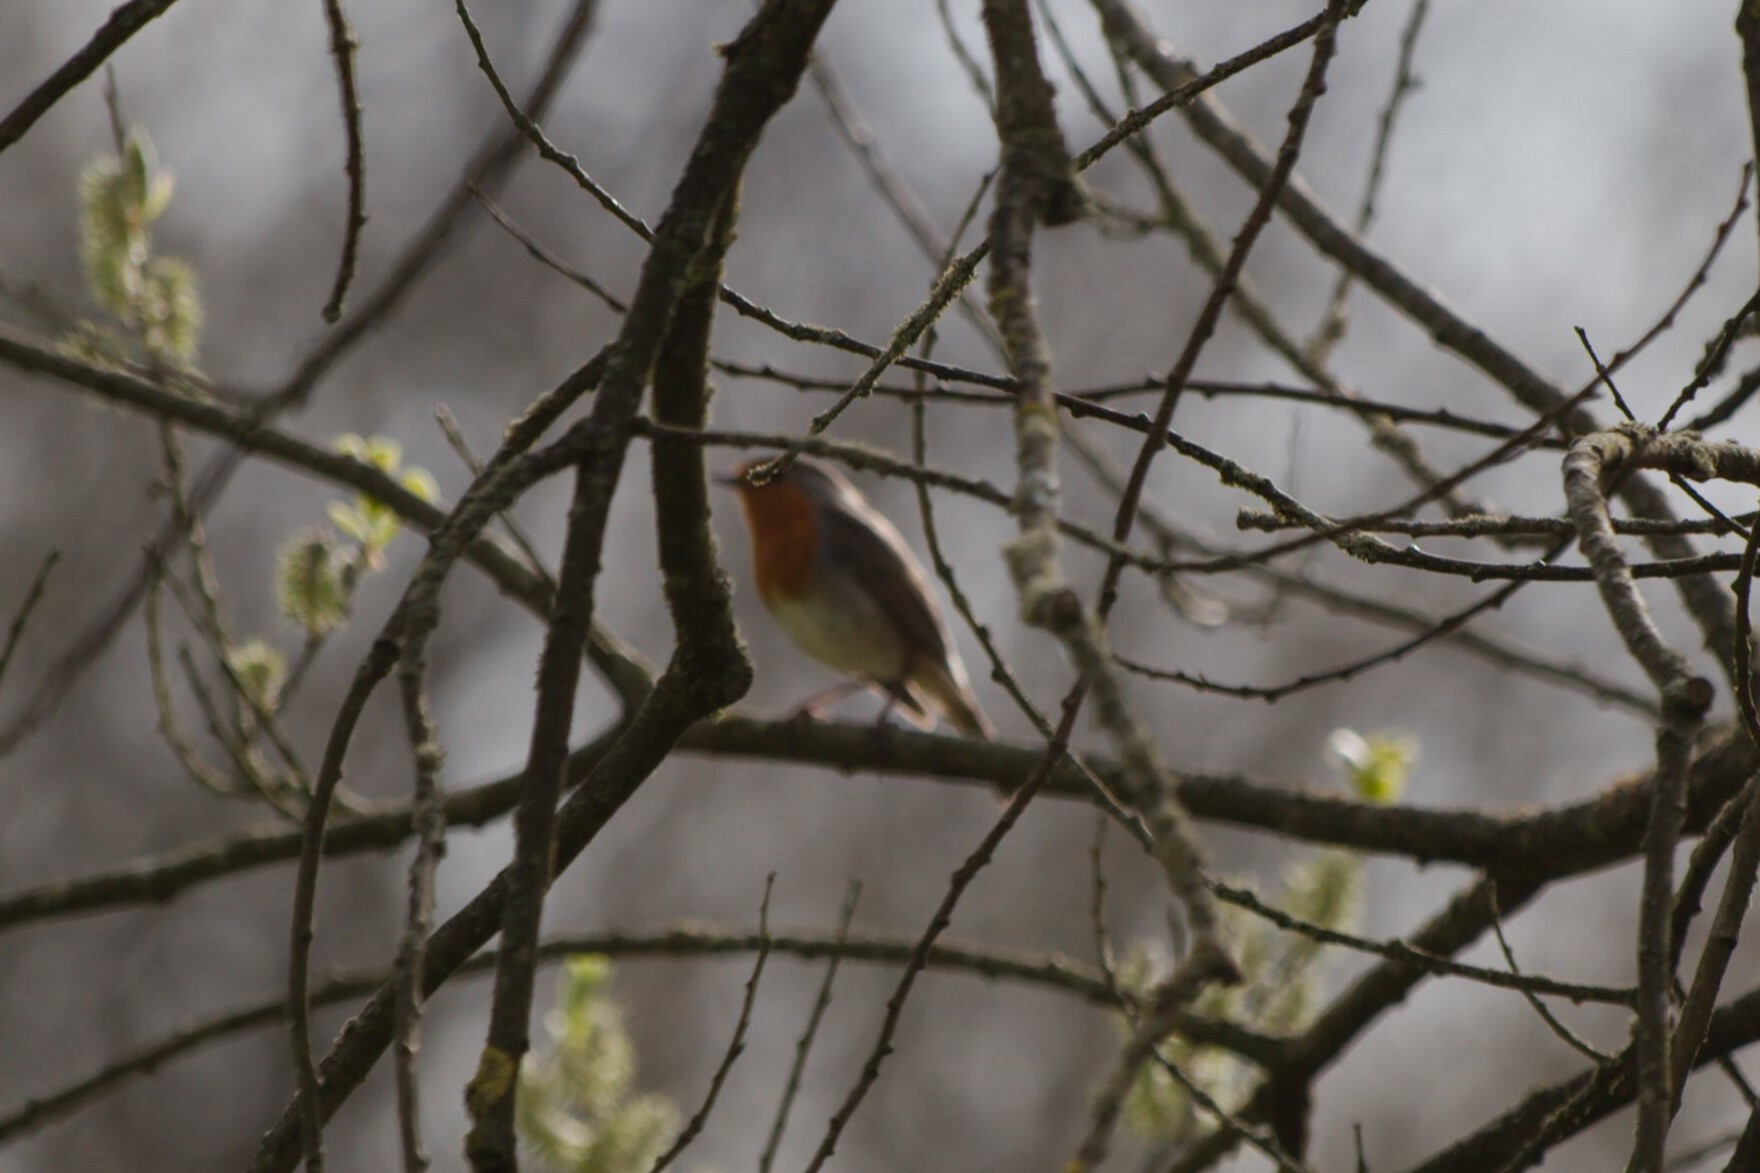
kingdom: Animalia
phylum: Chordata
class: Aves
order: Passeriformes
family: Muscicapidae
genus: Erithacus
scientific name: Erithacus rubecula
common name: European robin
